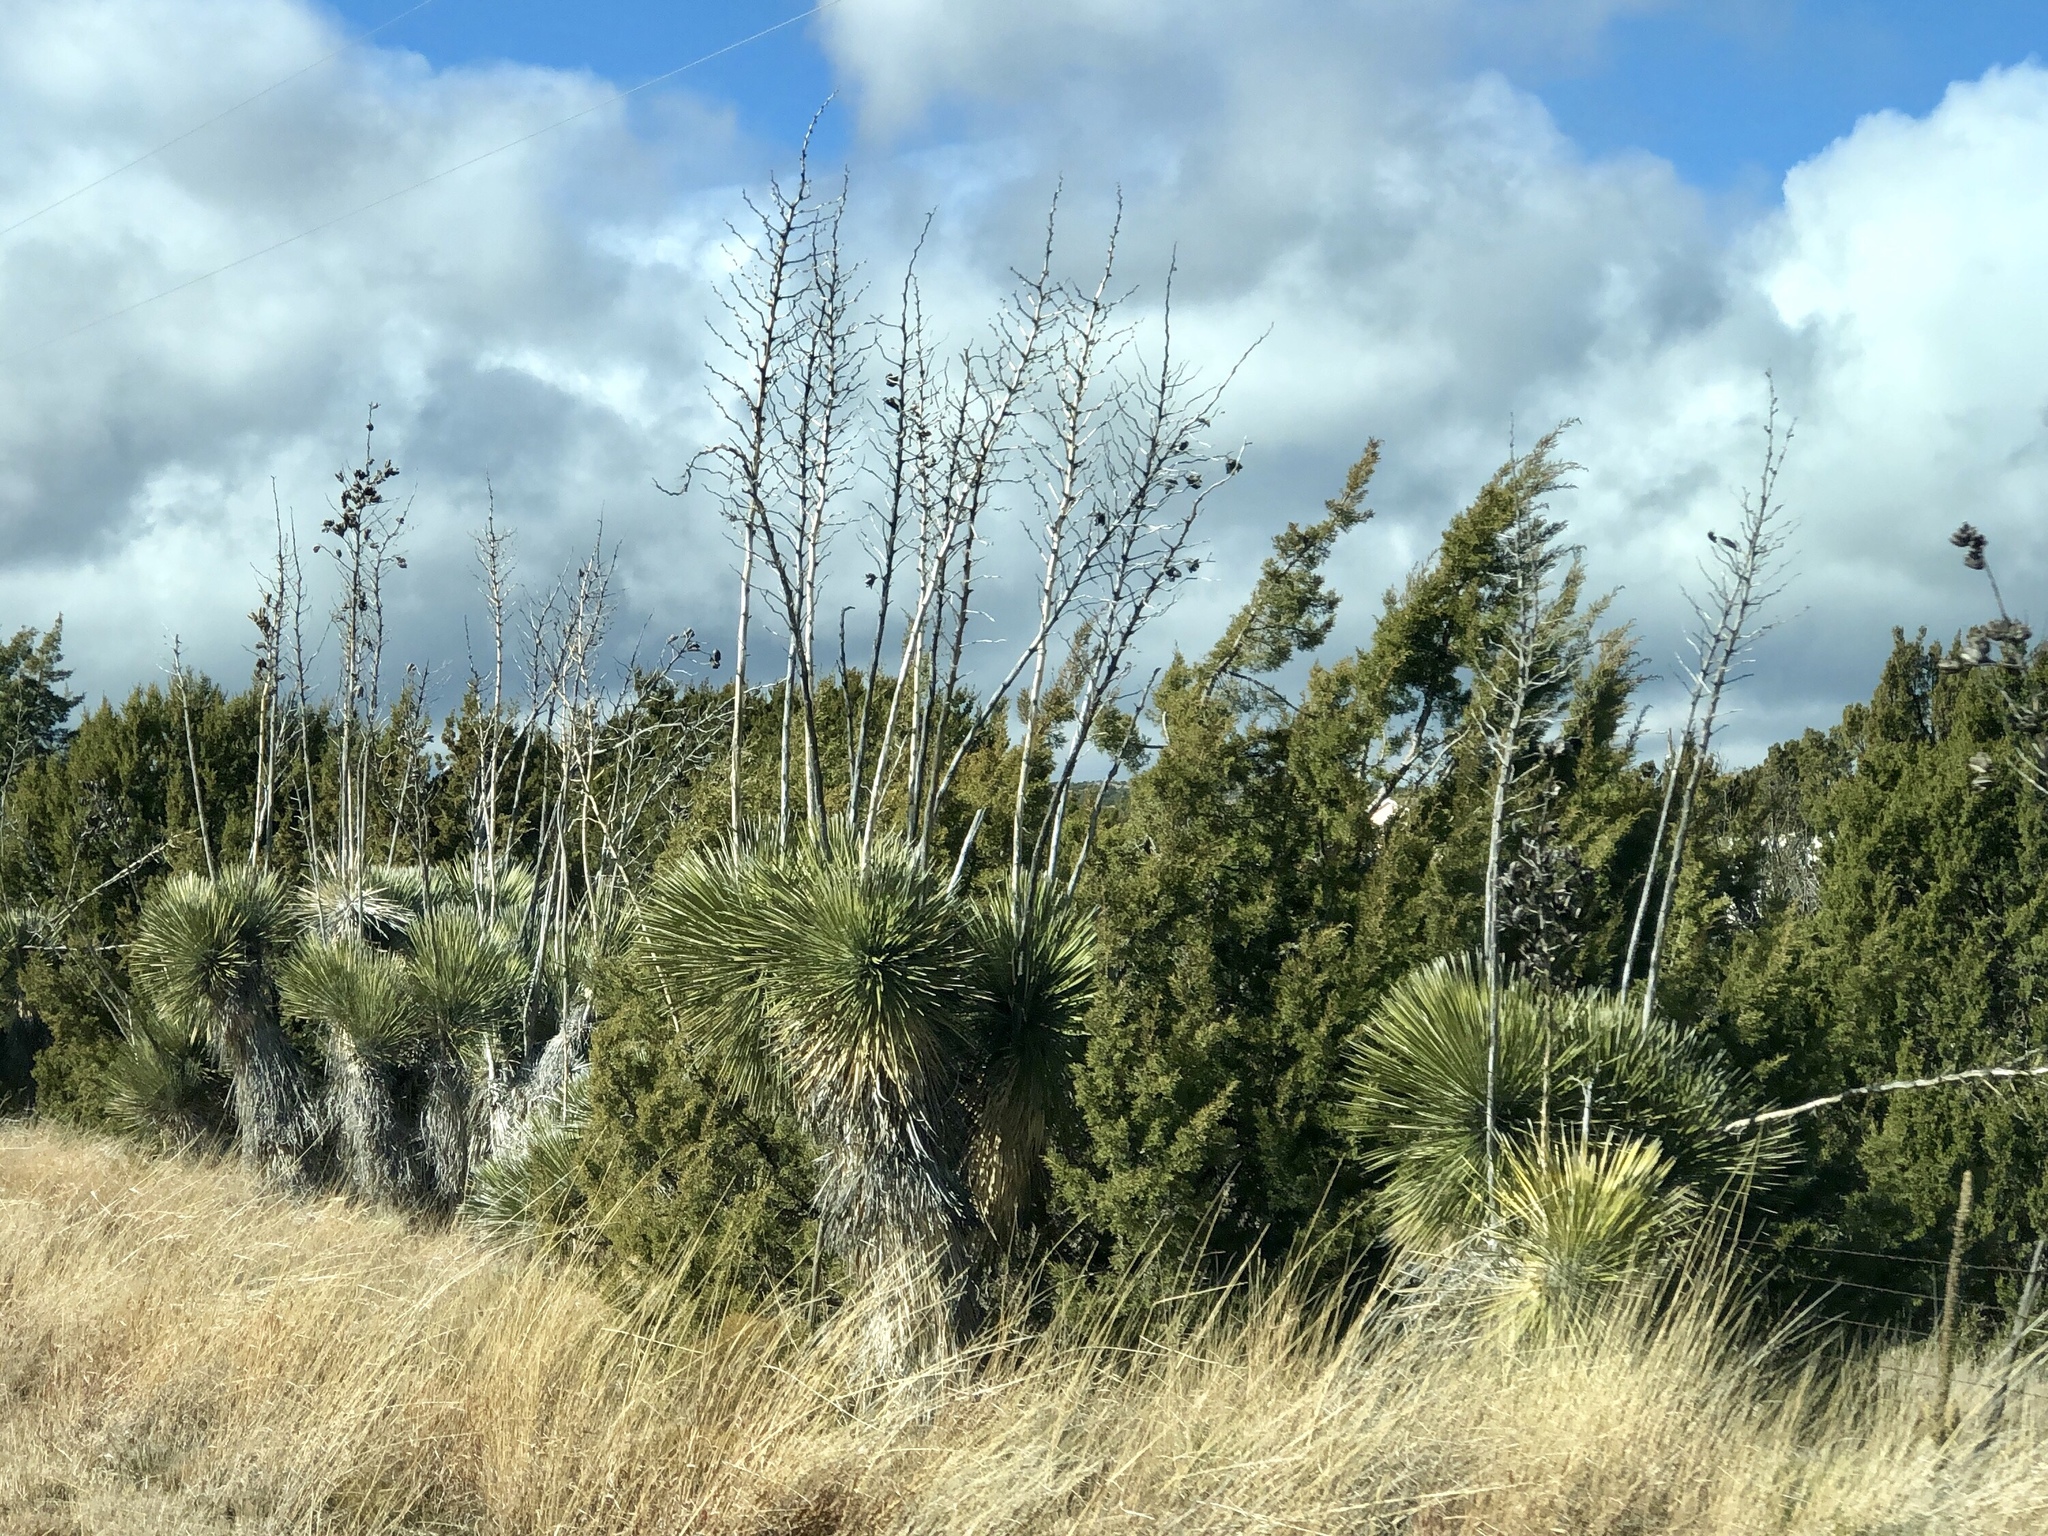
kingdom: Plantae
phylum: Tracheophyta
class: Liliopsida
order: Asparagales
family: Asparagaceae
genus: Yucca
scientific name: Yucca elata
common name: Palmella
